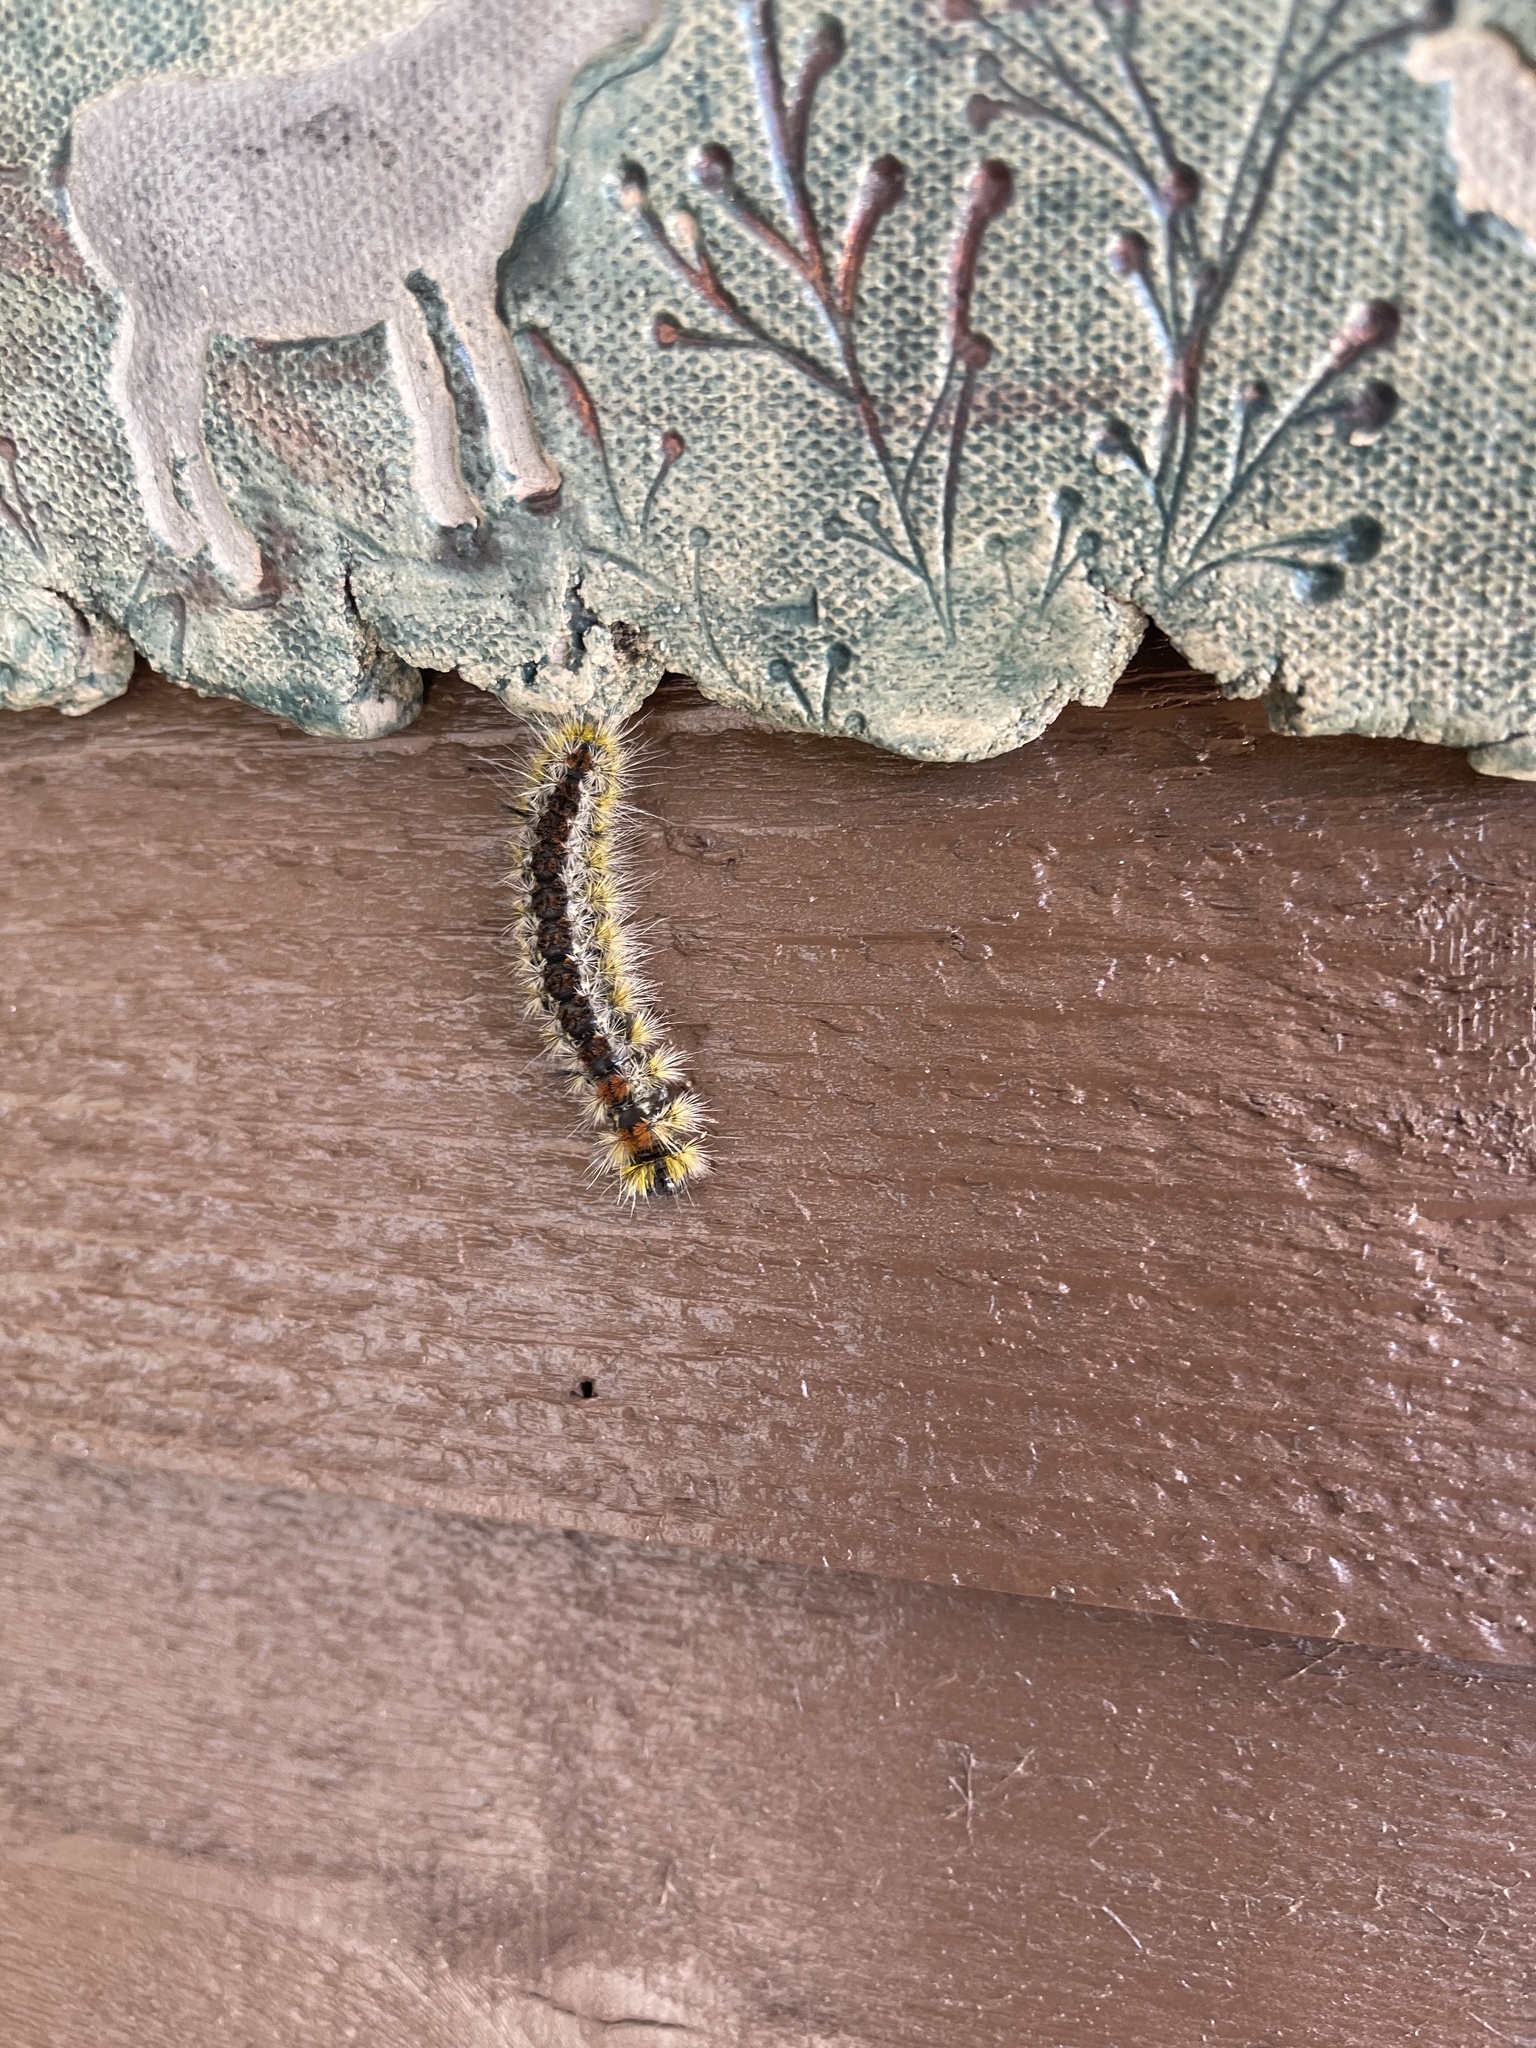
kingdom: Animalia
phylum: Arthropoda
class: Insecta
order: Lepidoptera
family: Erebidae
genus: Lophocampa
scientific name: Lophocampa ingens
